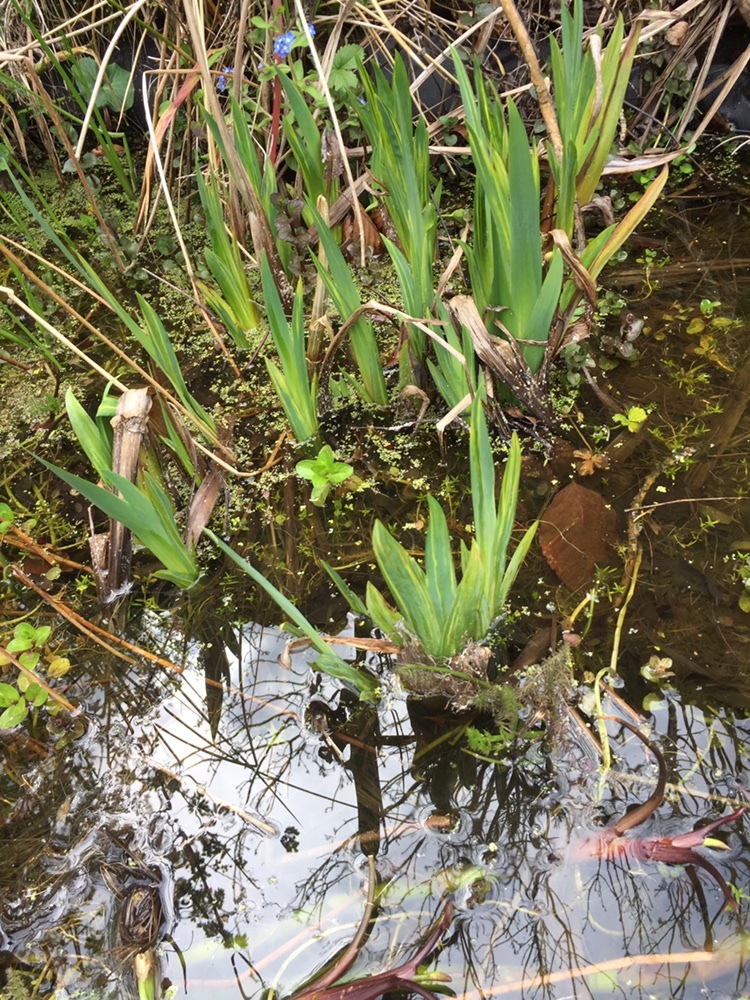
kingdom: Plantae
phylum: Tracheophyta
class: Liliopsida
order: Asparagales
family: Iridaceae
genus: Iris
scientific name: Iris pseudacorus
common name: Yellow flag
